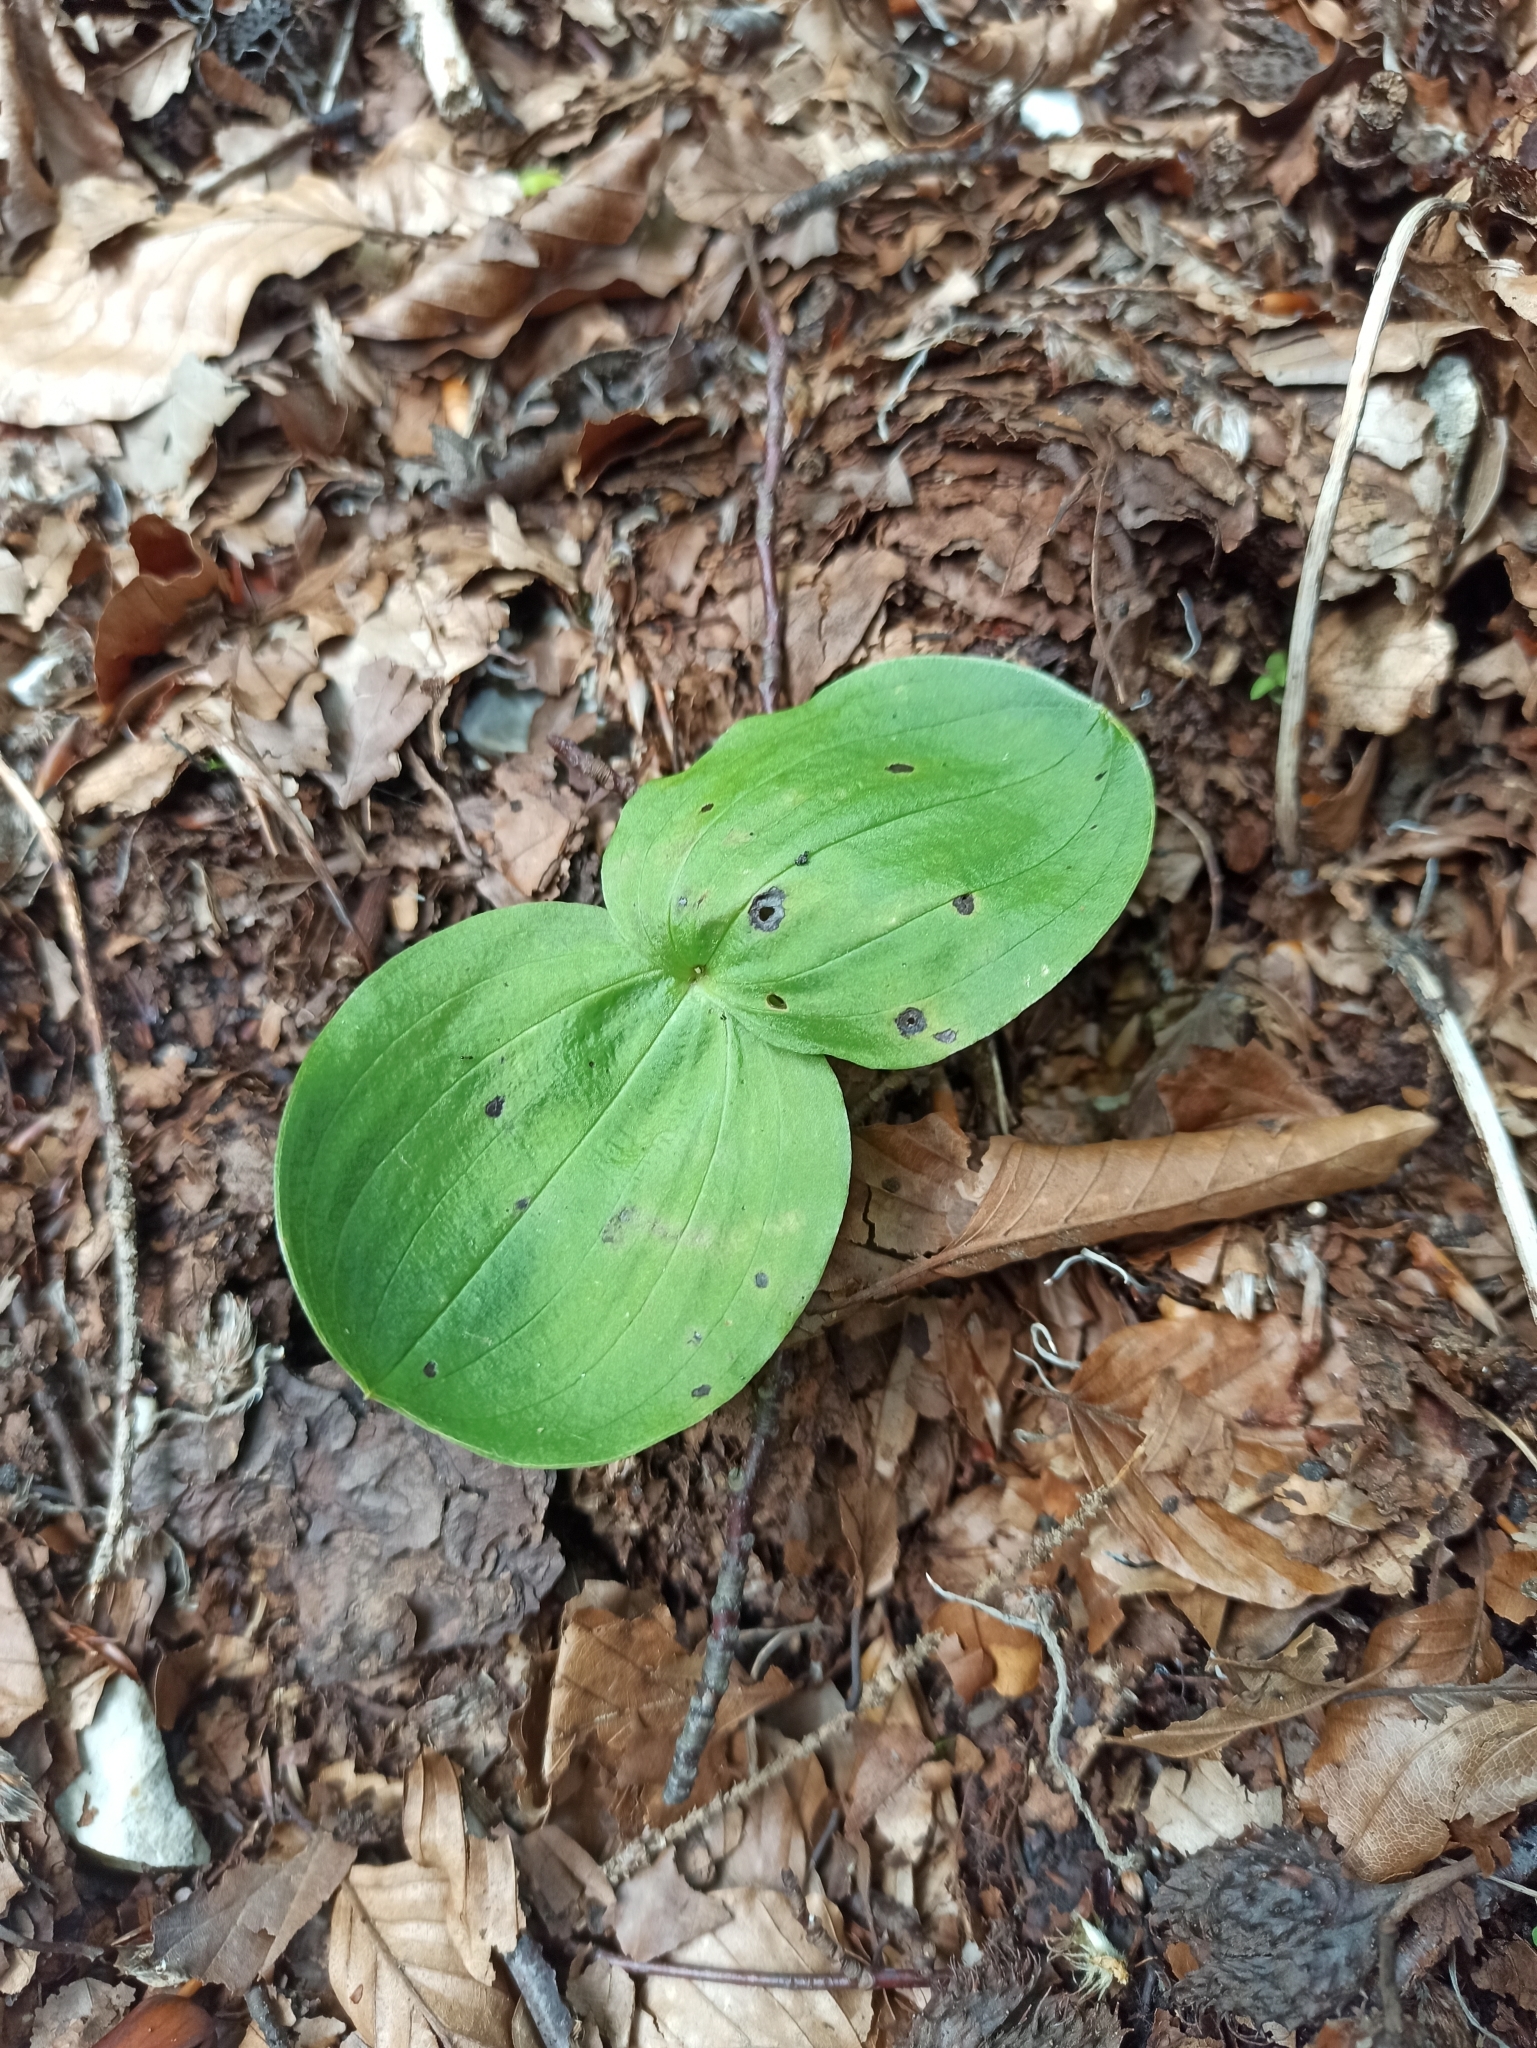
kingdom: Plantae
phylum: Tracheophyta
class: Liliopsida
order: Asparagales
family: Orchidaceae
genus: Neottia
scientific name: Neottia ovata
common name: Common twayblade
